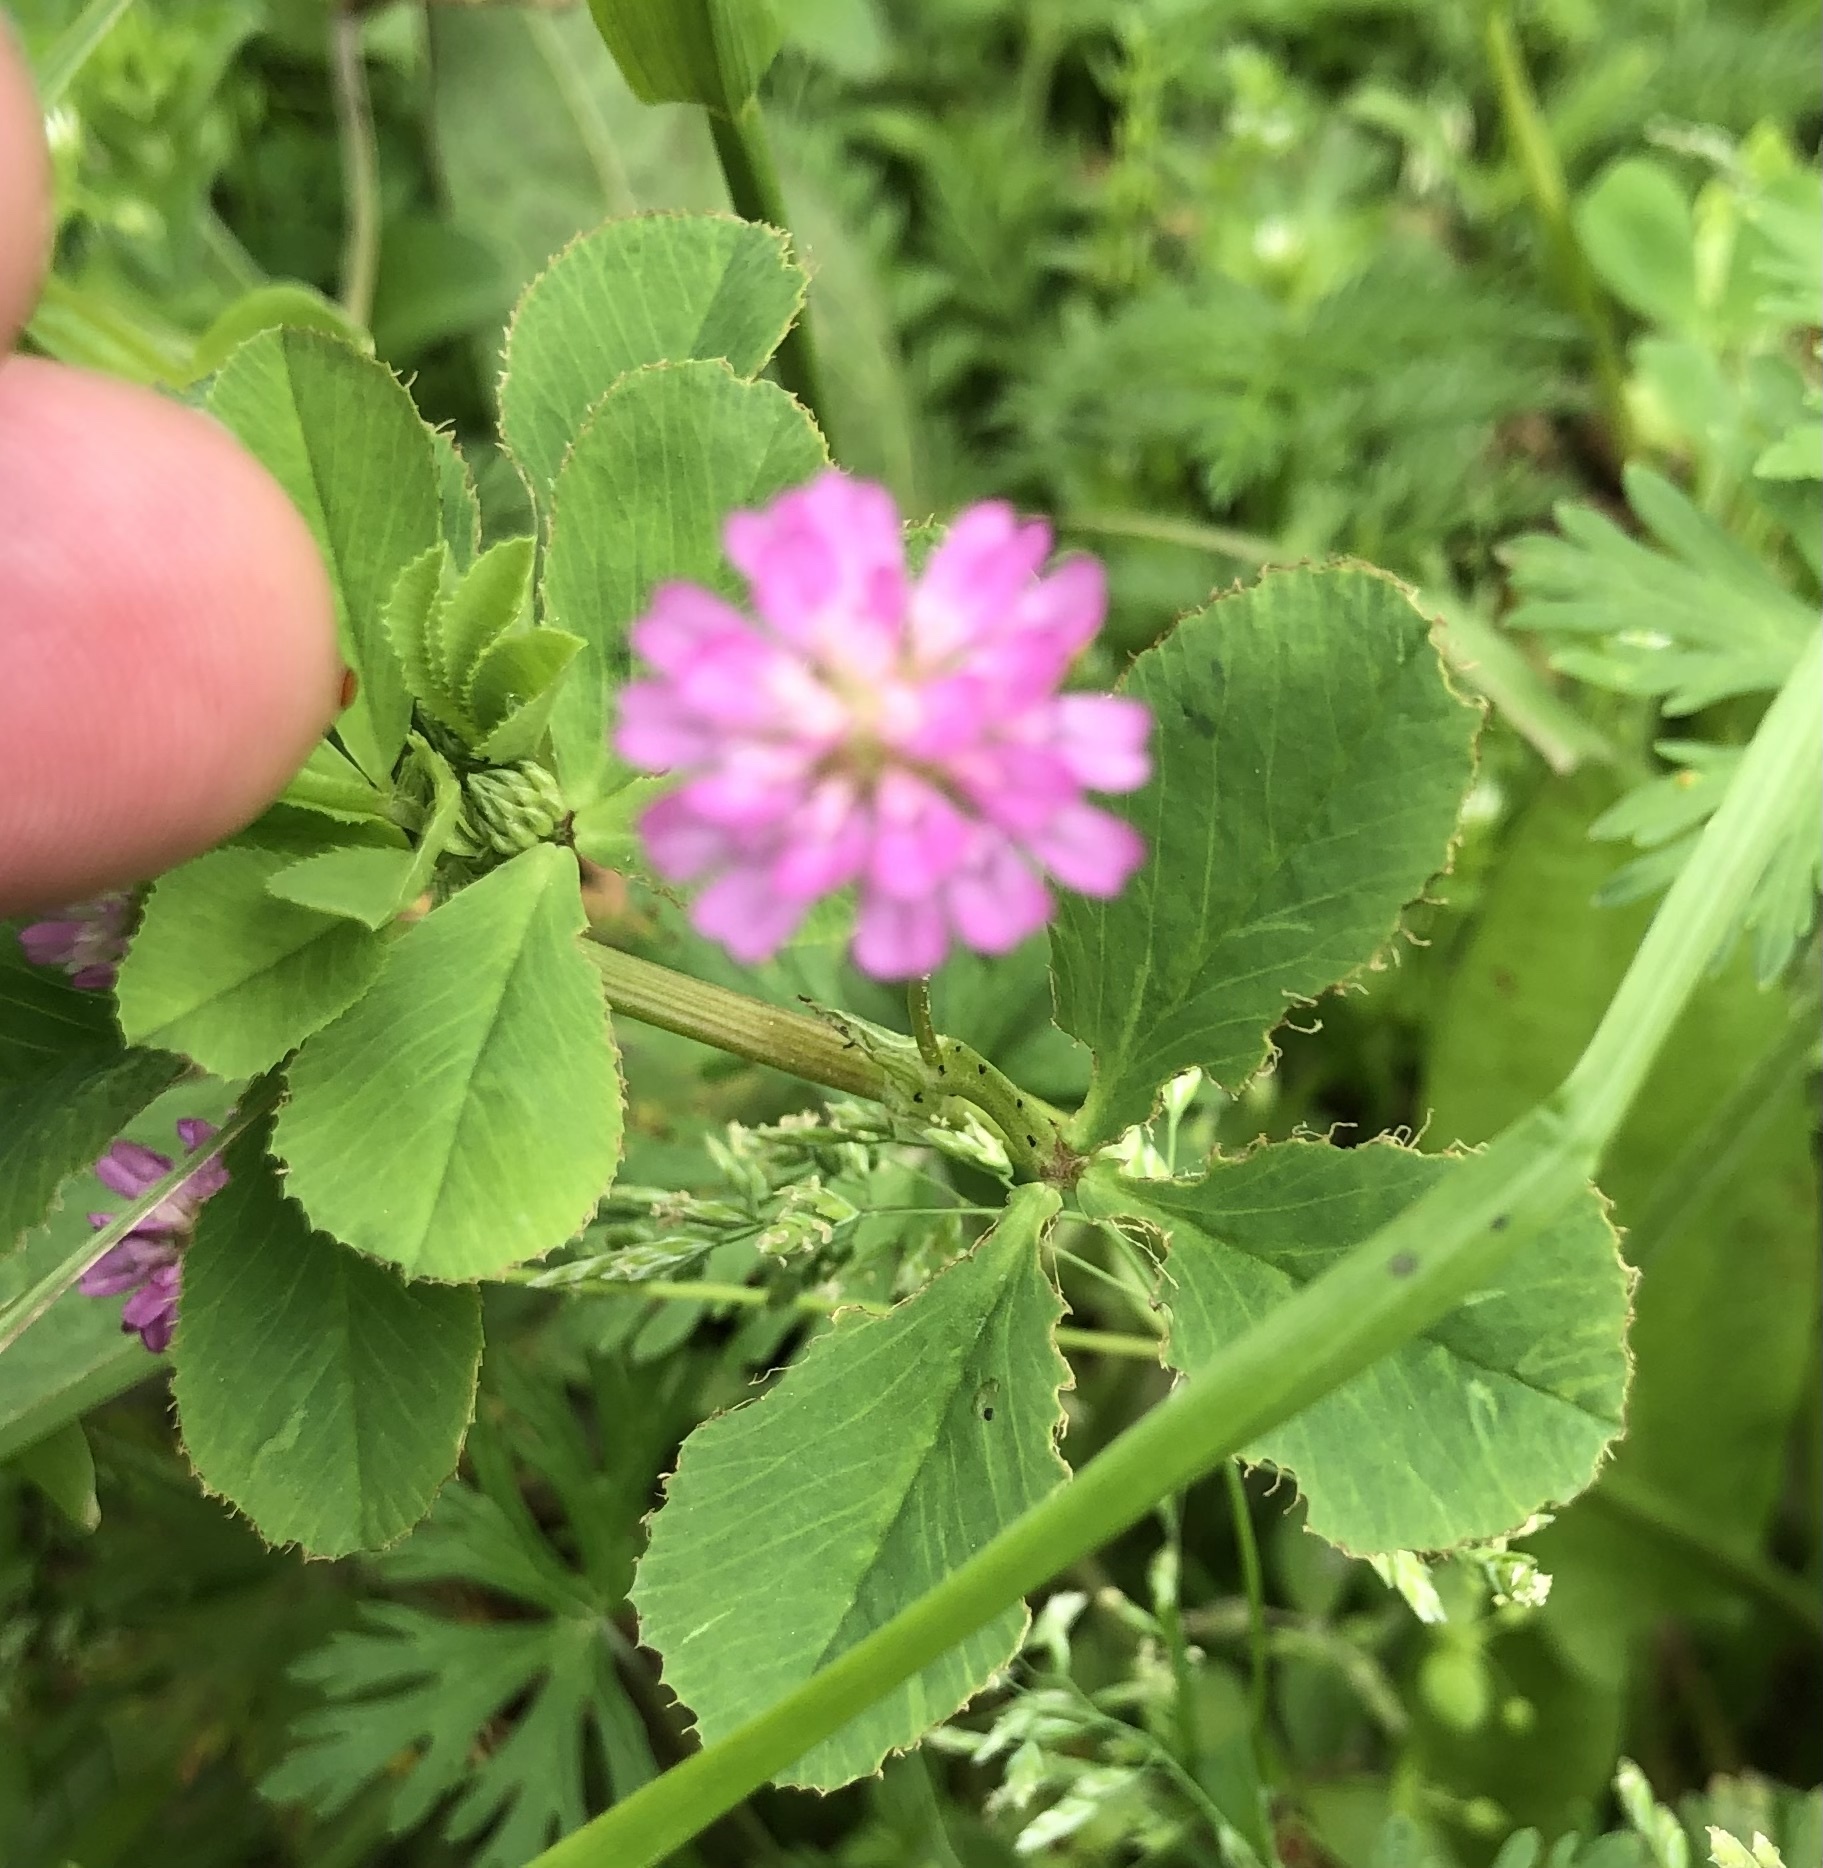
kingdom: Plantae
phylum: Tracheophyta
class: Magnoliopsida
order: Fabales
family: Fabaceae
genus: Trifolium
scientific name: Trifolium resupinatum
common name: Reversed clover
